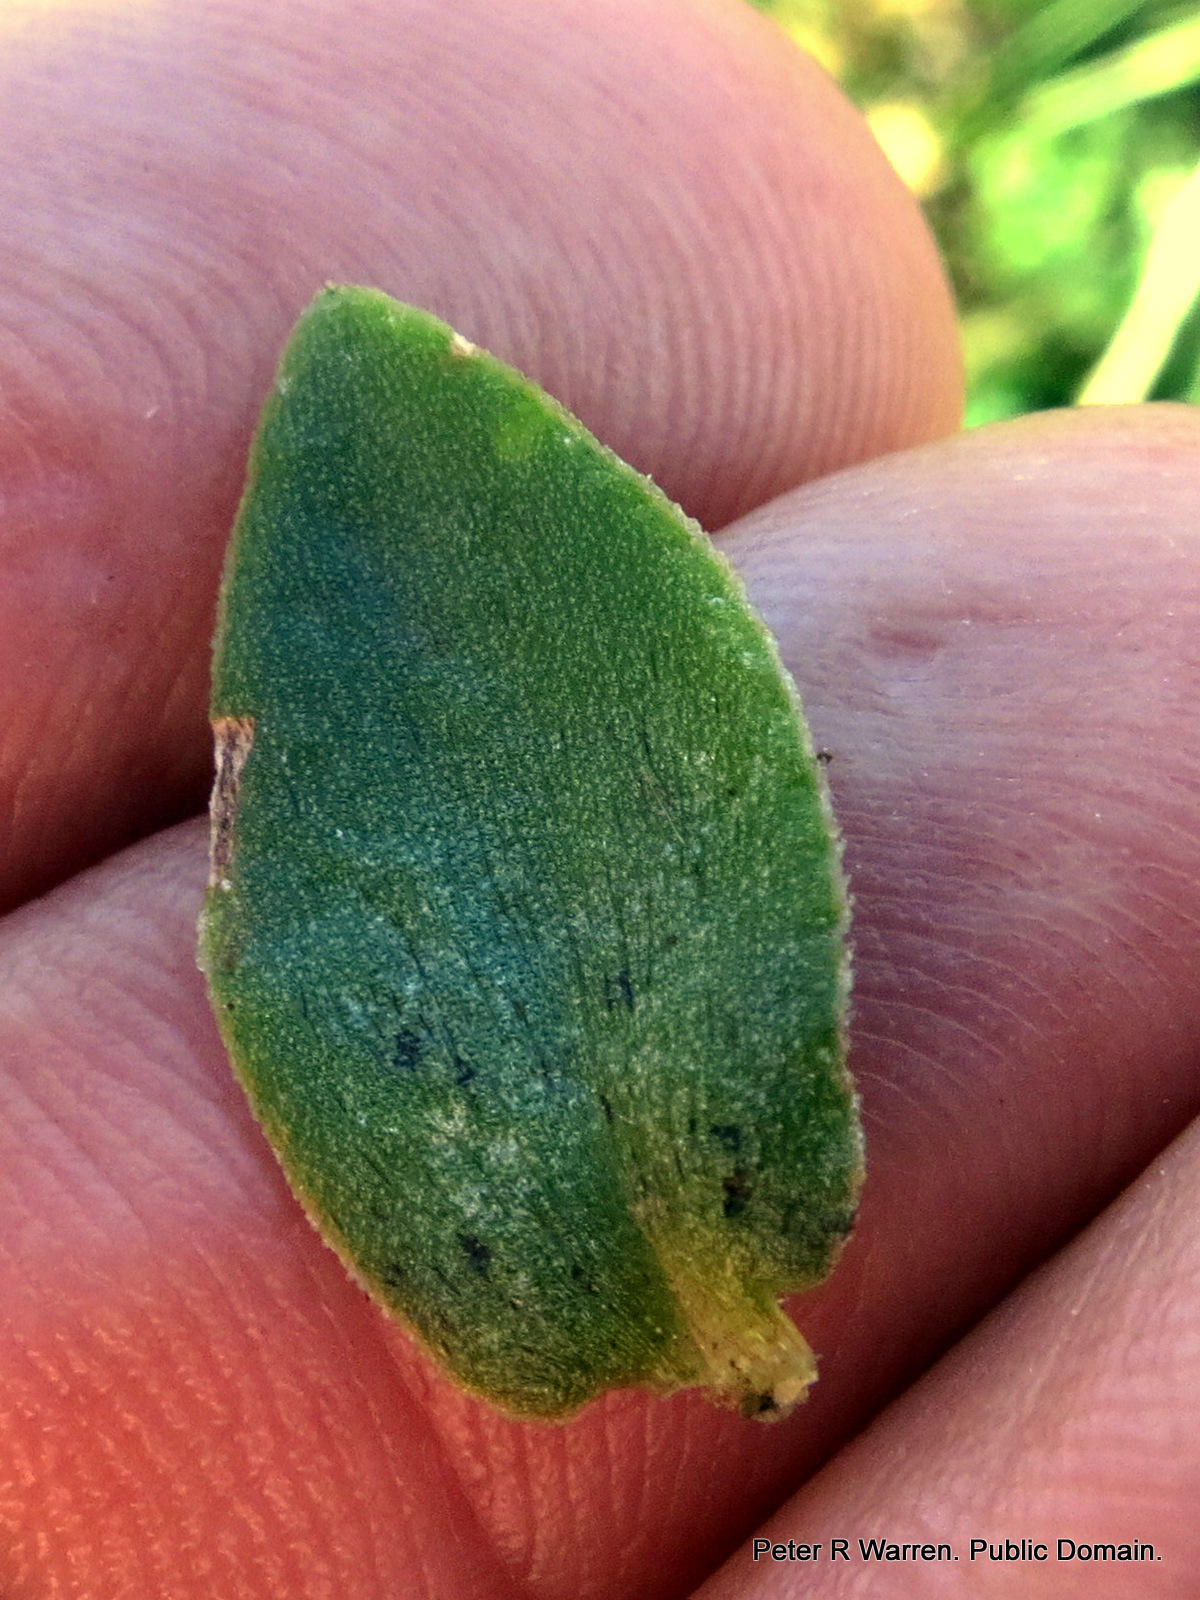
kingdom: Plantae
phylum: Tracheophyta
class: Magnoliopsida
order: Saxifragales
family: Crassulaceae
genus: Crassula
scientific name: Crassula alsinoides
